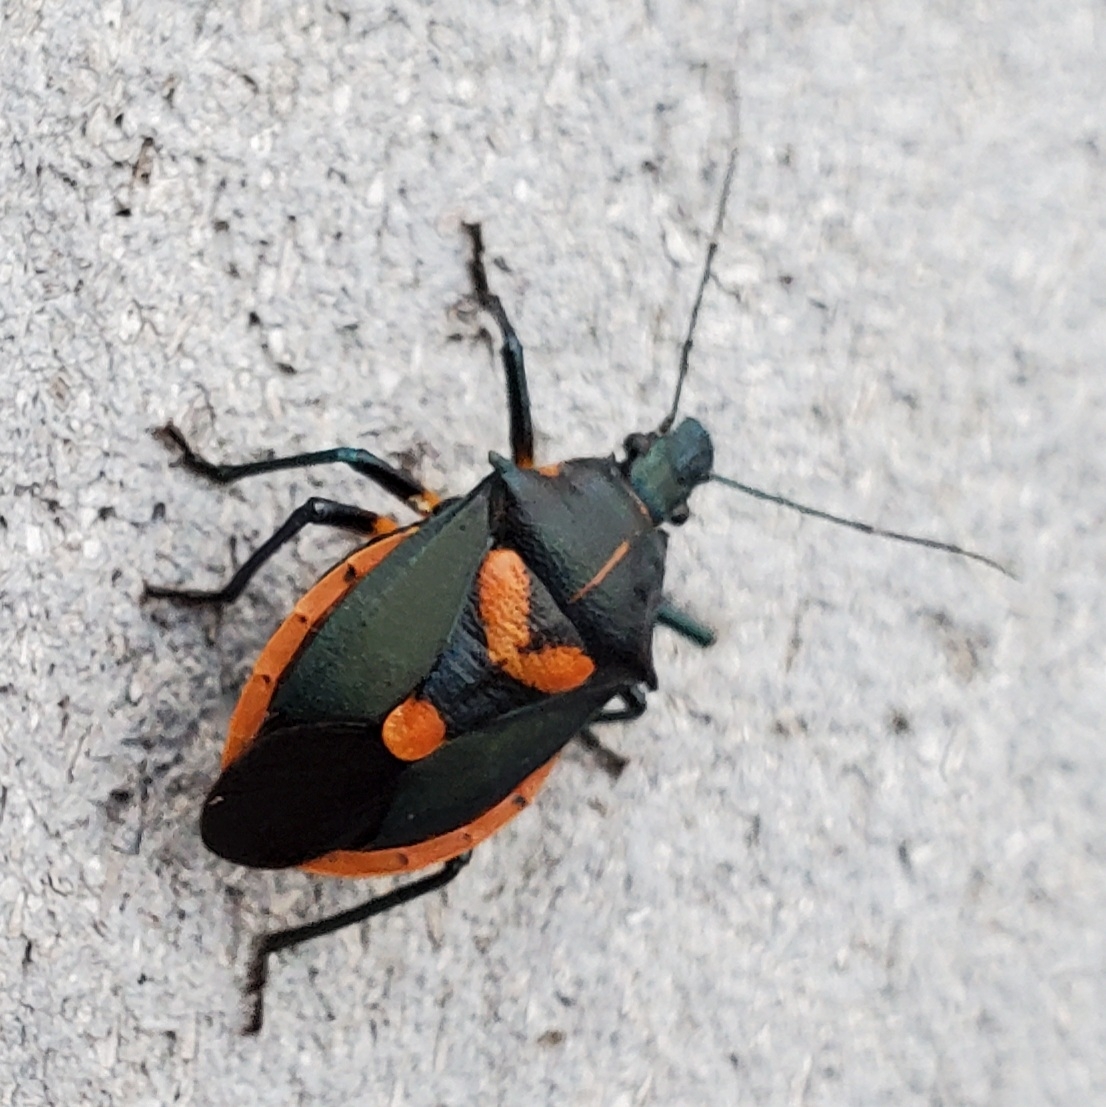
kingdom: Animalia
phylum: Arthropoda
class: Insecta
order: Hemiptera
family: Pentatomidae
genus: Euthyrhynchus
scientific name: Euthyrhynchus floridanus
